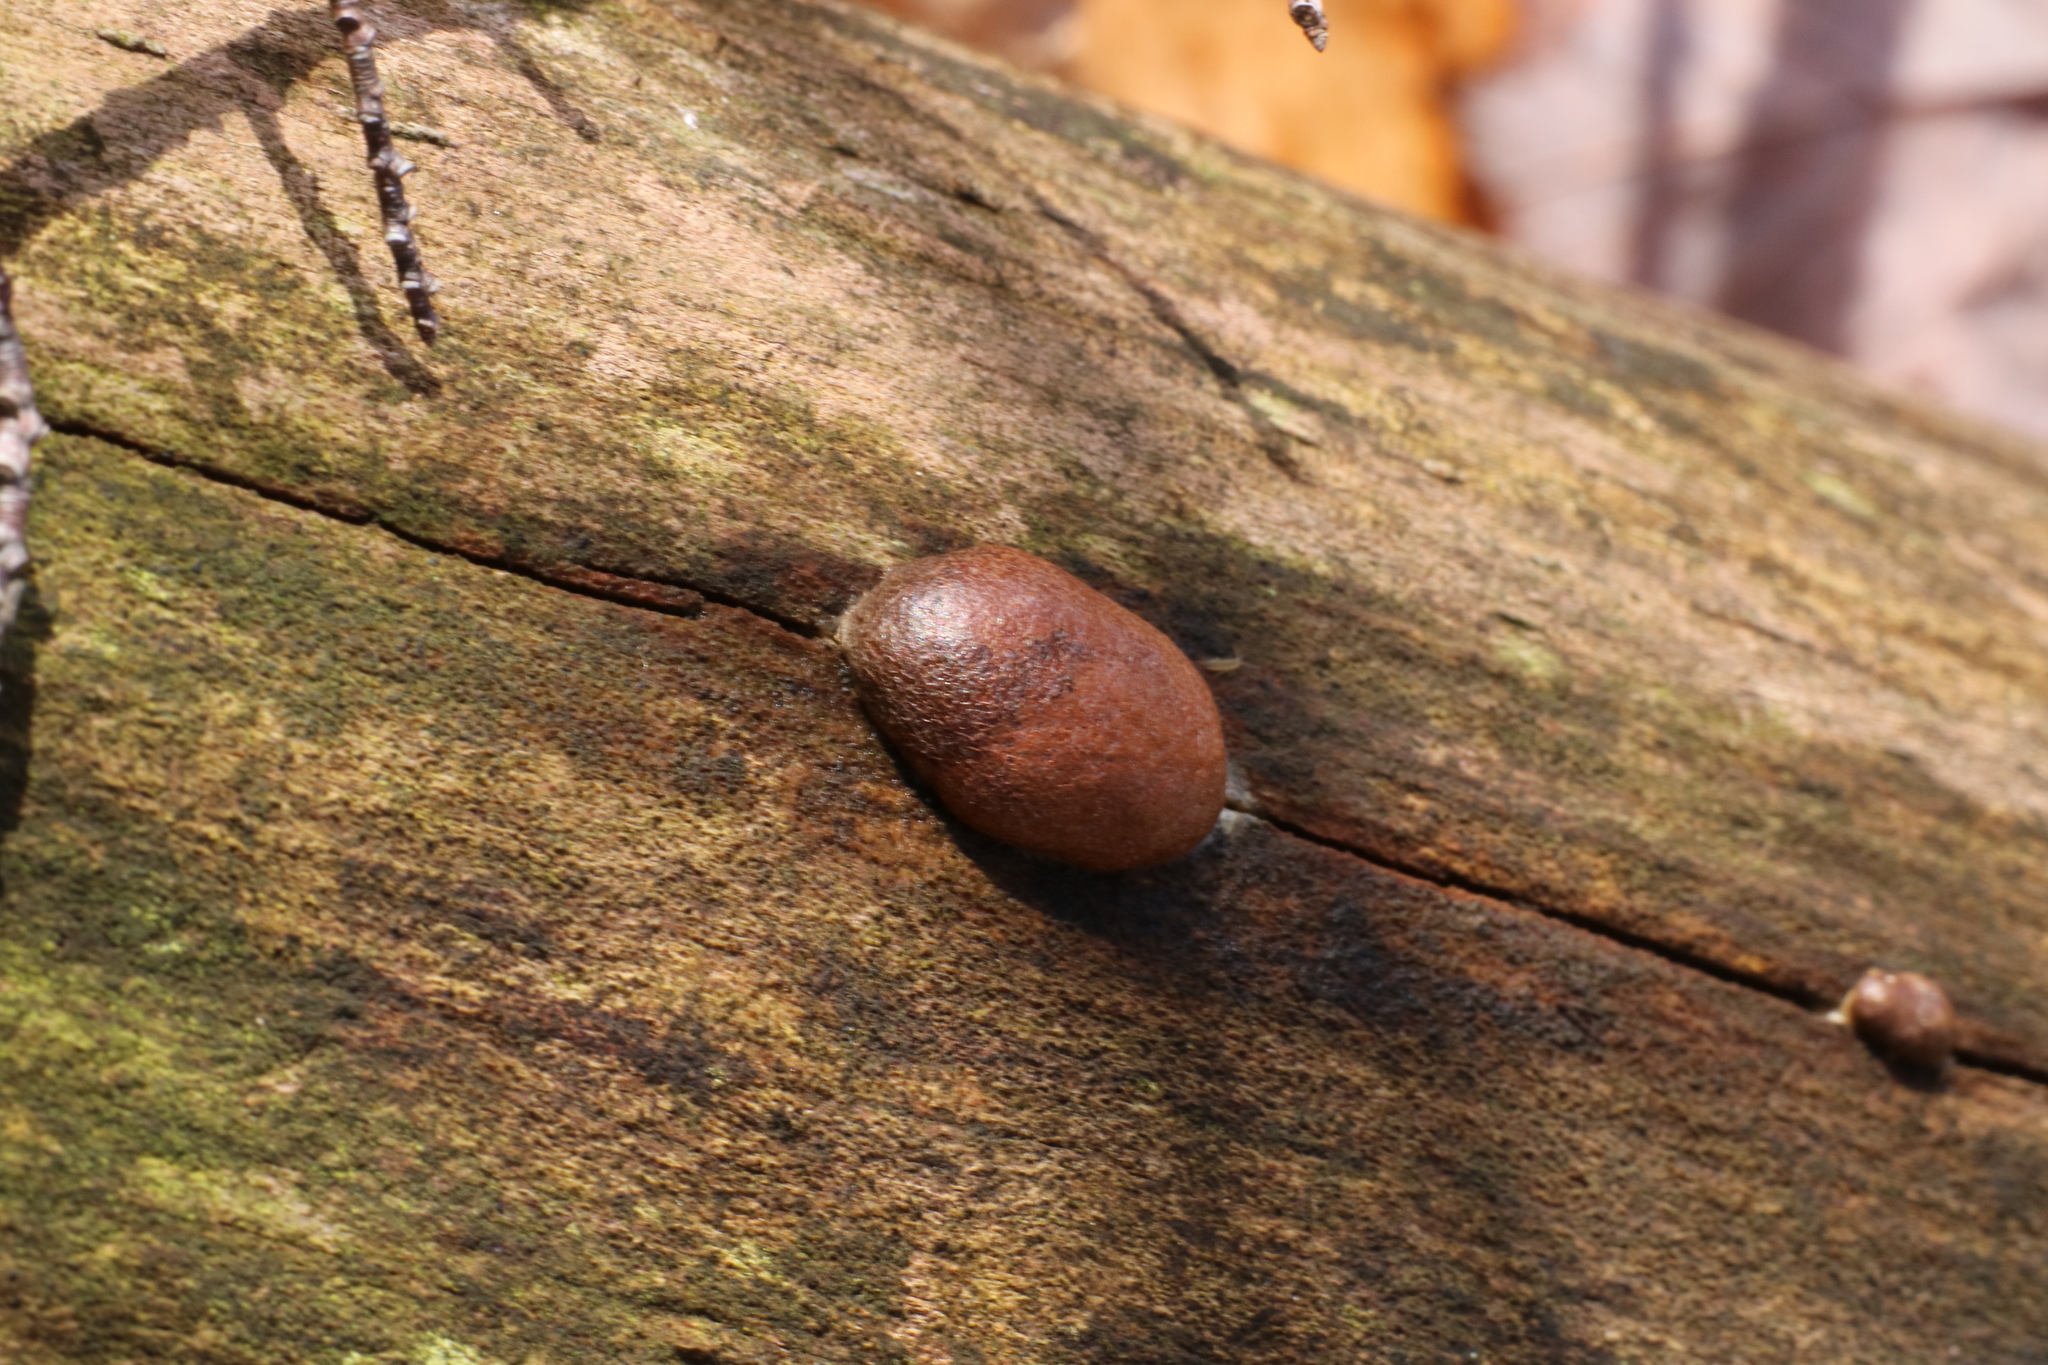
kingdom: Protozoa
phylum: Mycetozoa
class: Myxomycetes
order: Cribrariales
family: Tubiferaceae
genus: Reticularia
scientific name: Reticularia splendens
